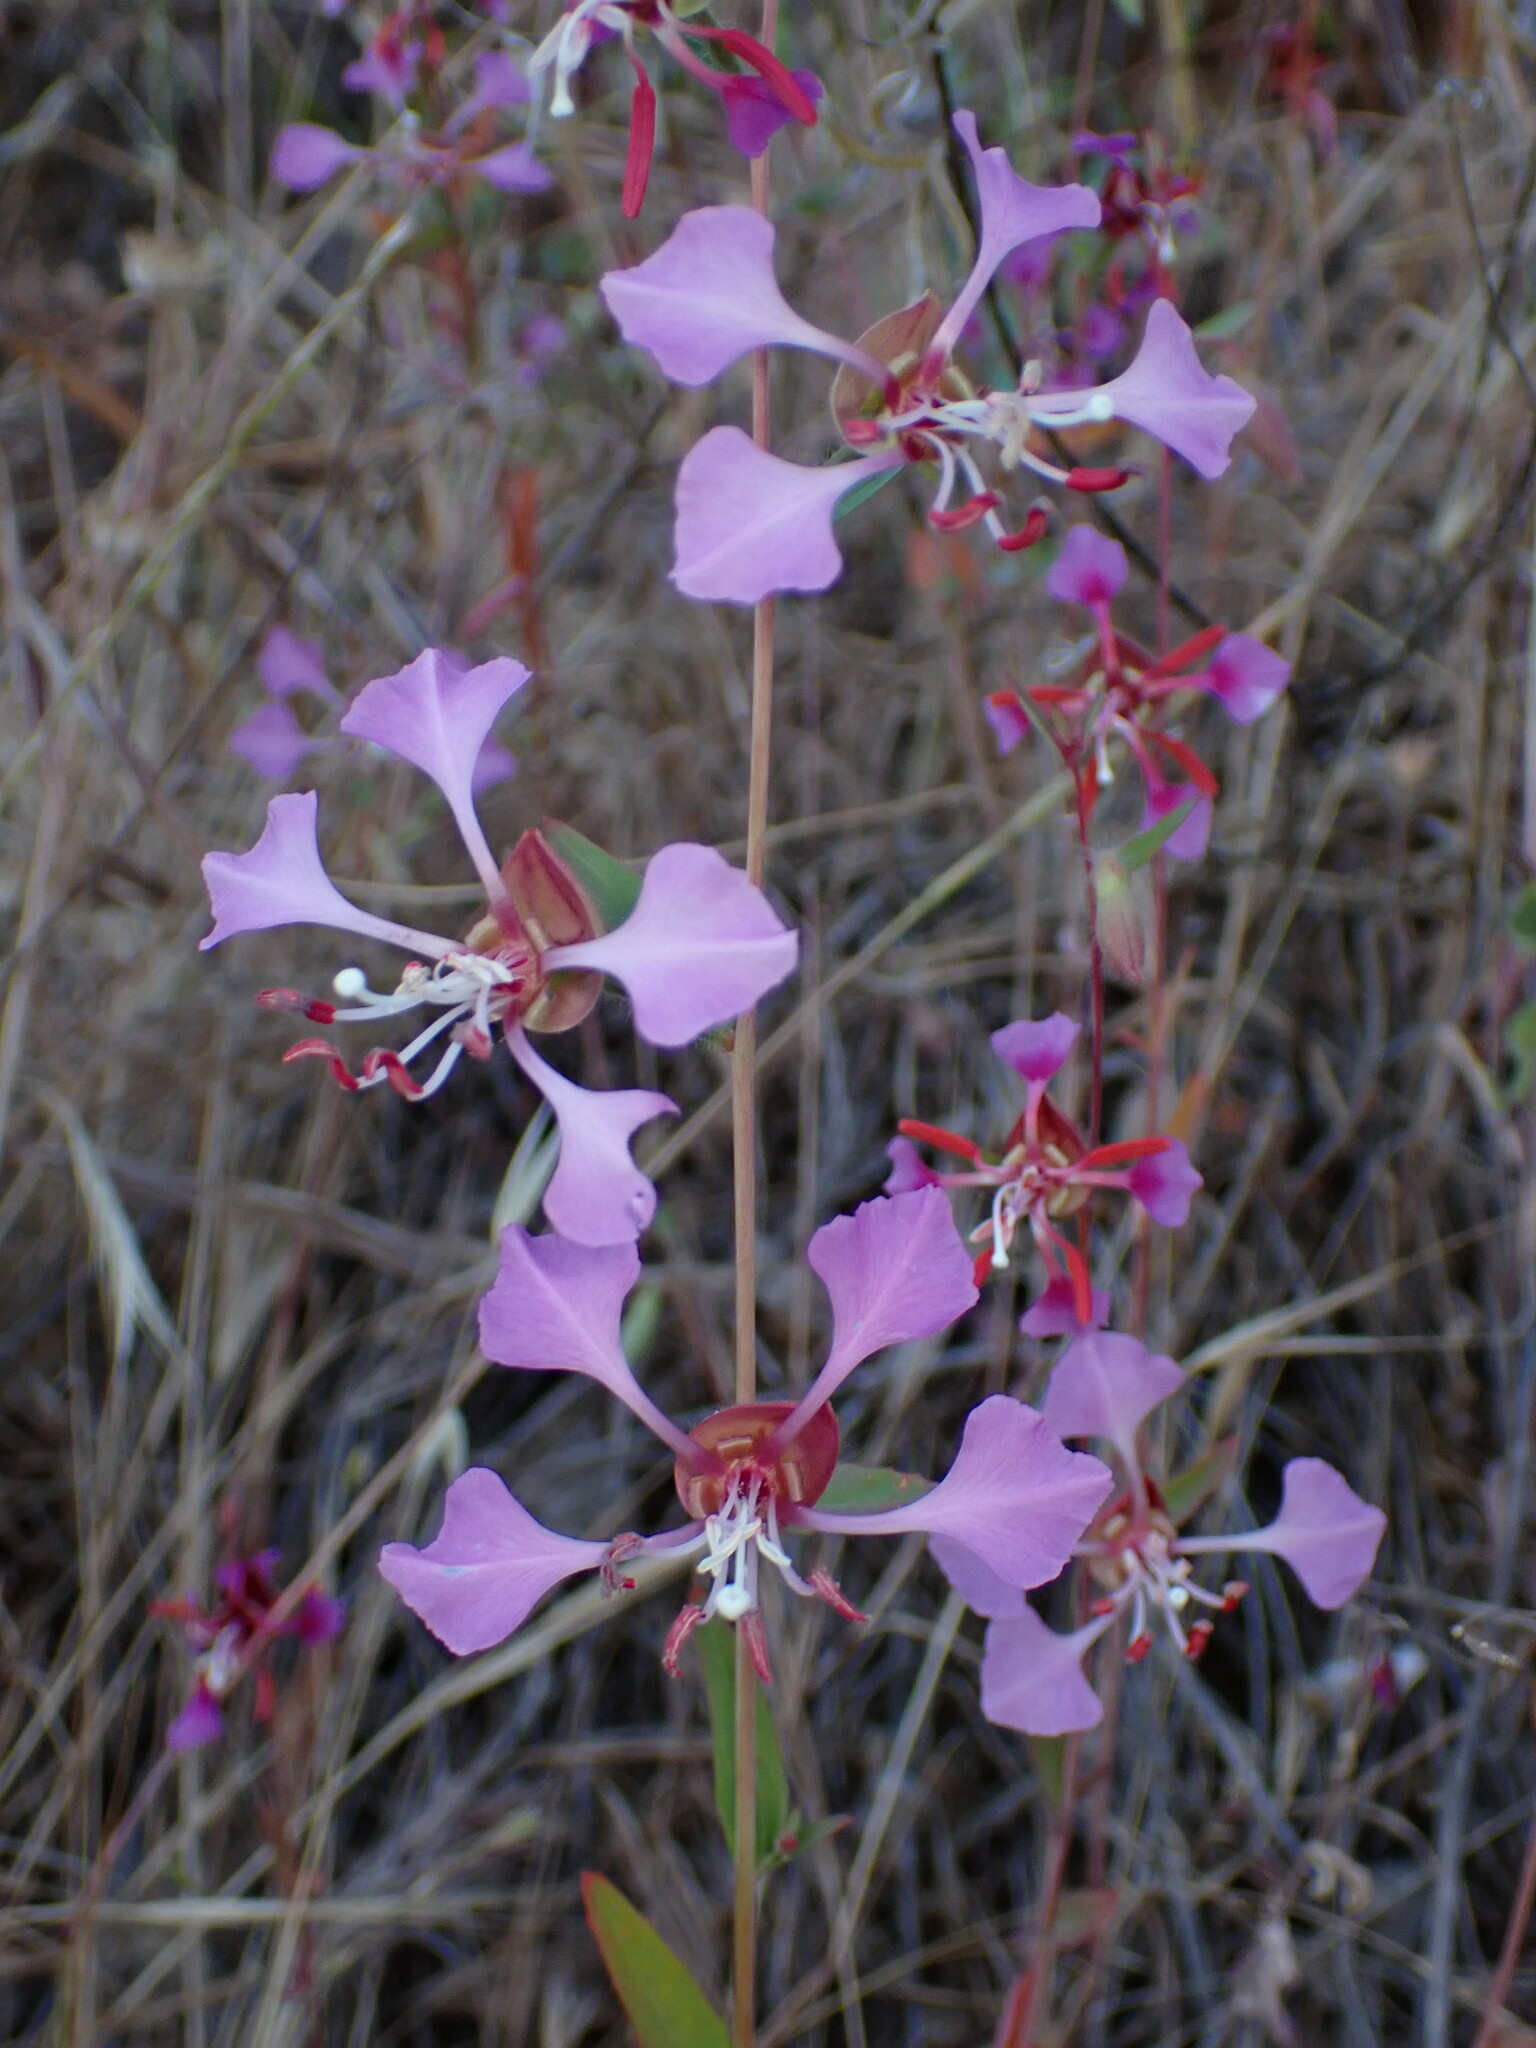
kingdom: Plantae
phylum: Tracheophyta
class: Magnoliopsida
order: Myrtales
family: Onagraceae
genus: Clarkia
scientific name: Clarkia unguiculata
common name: Clarkia
